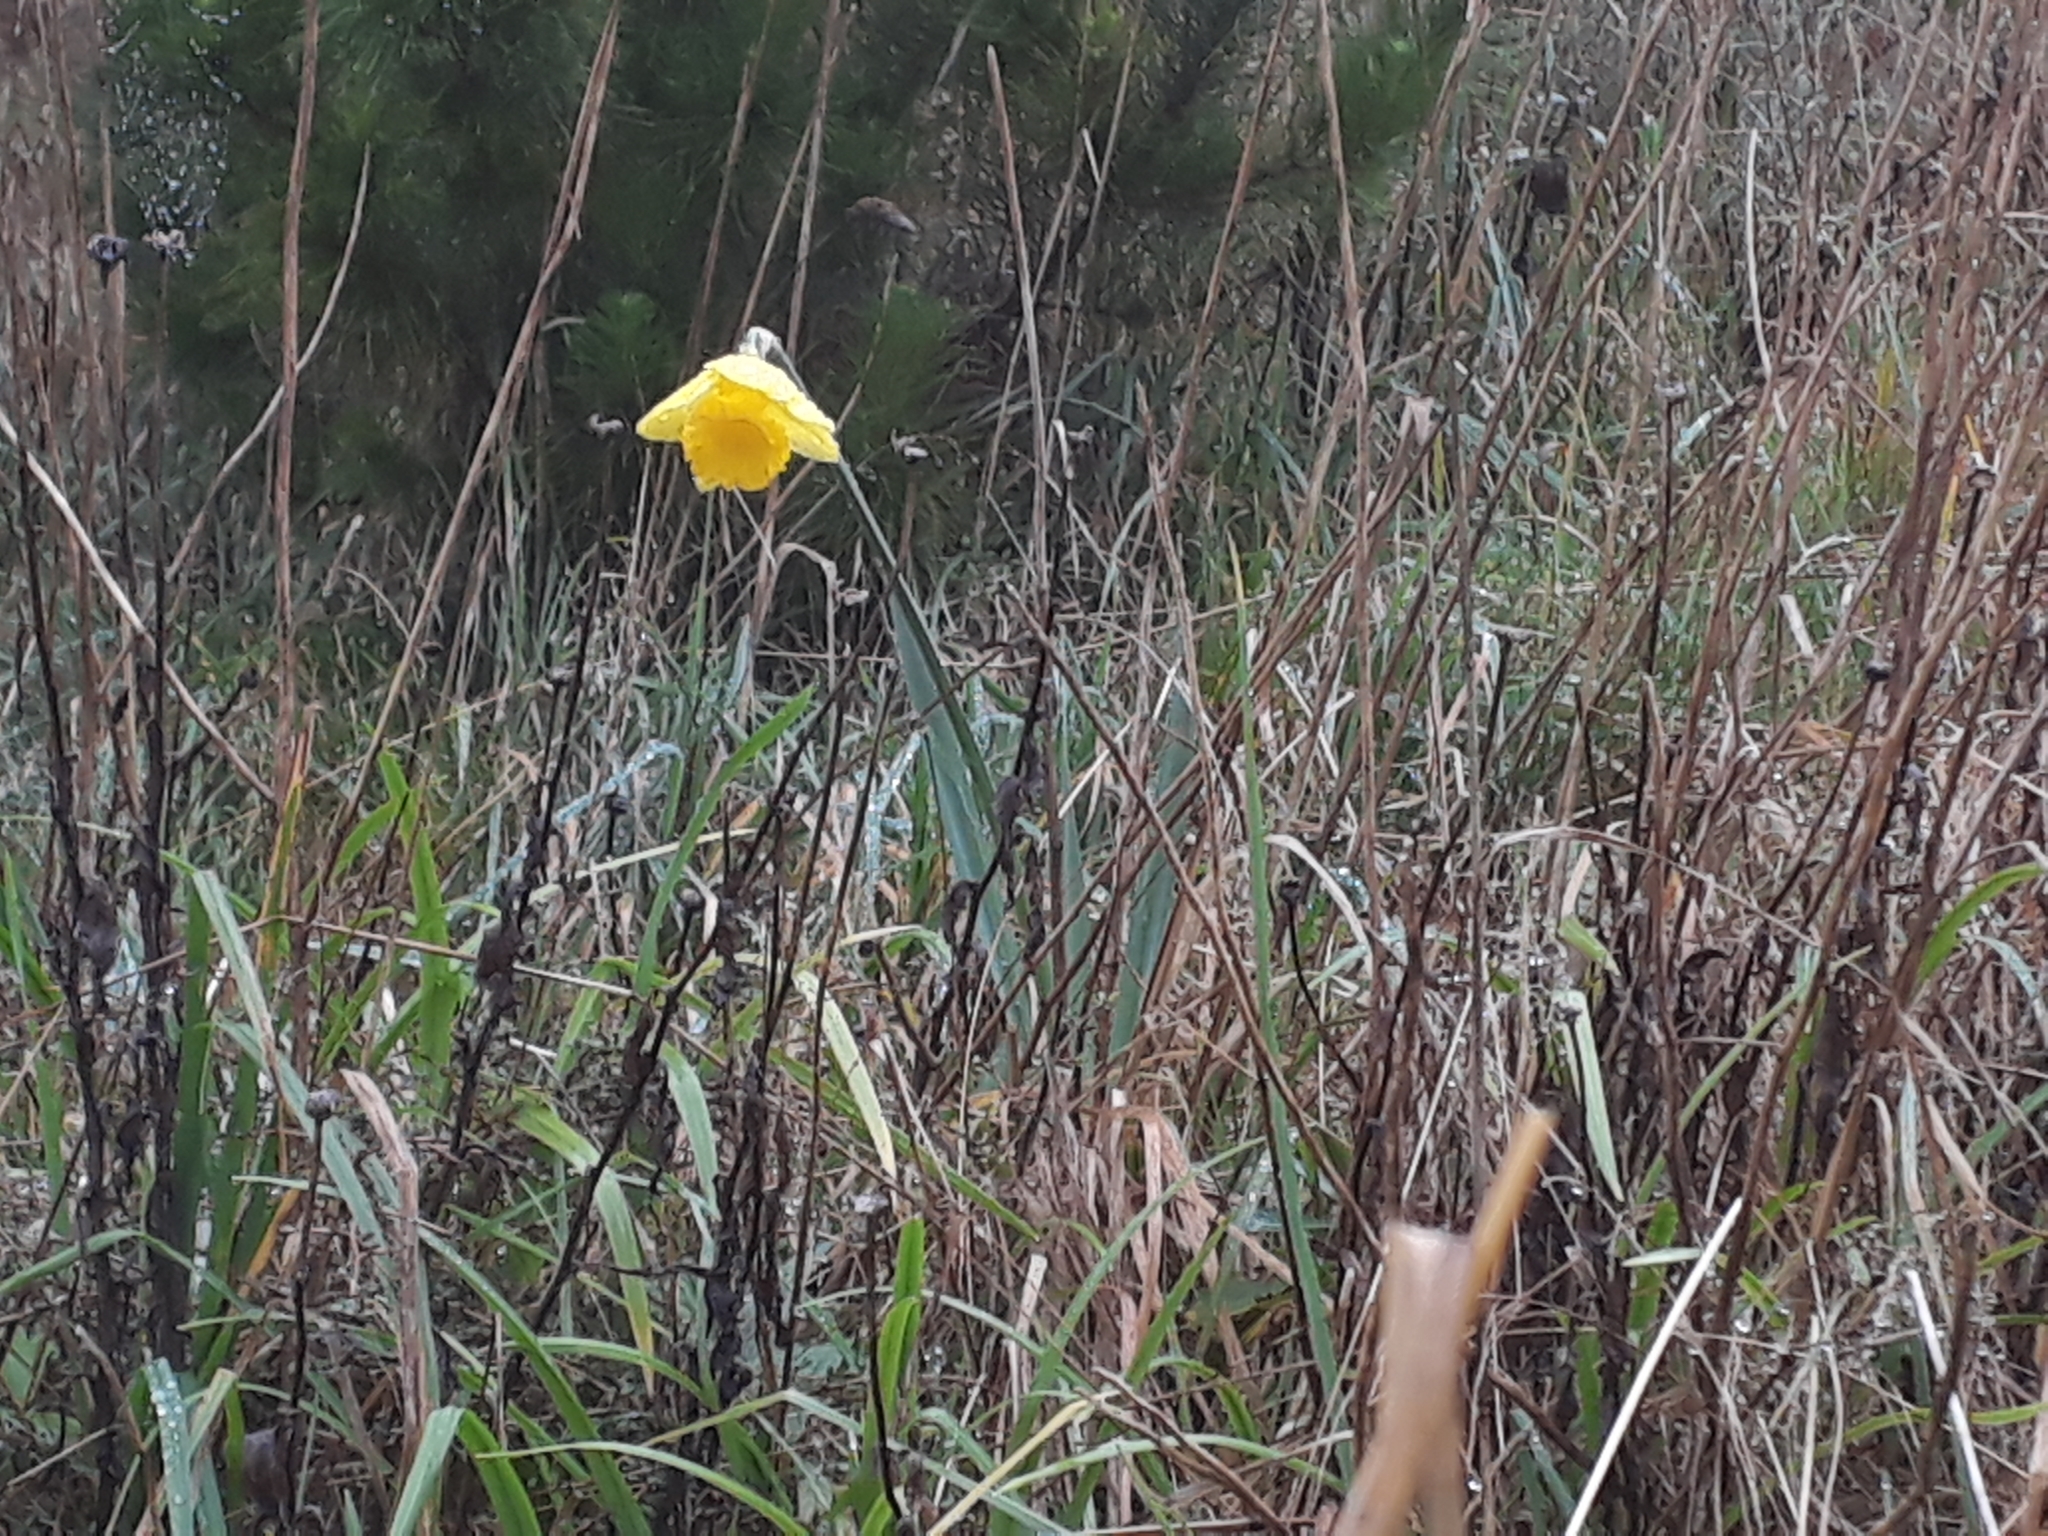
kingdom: Plantae
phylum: Tracheophyta
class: Liliopsida
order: Asparagales
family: Amaryllidaceae
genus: Narcissus
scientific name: Narcissus pseudonarcissus
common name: Daffodil
